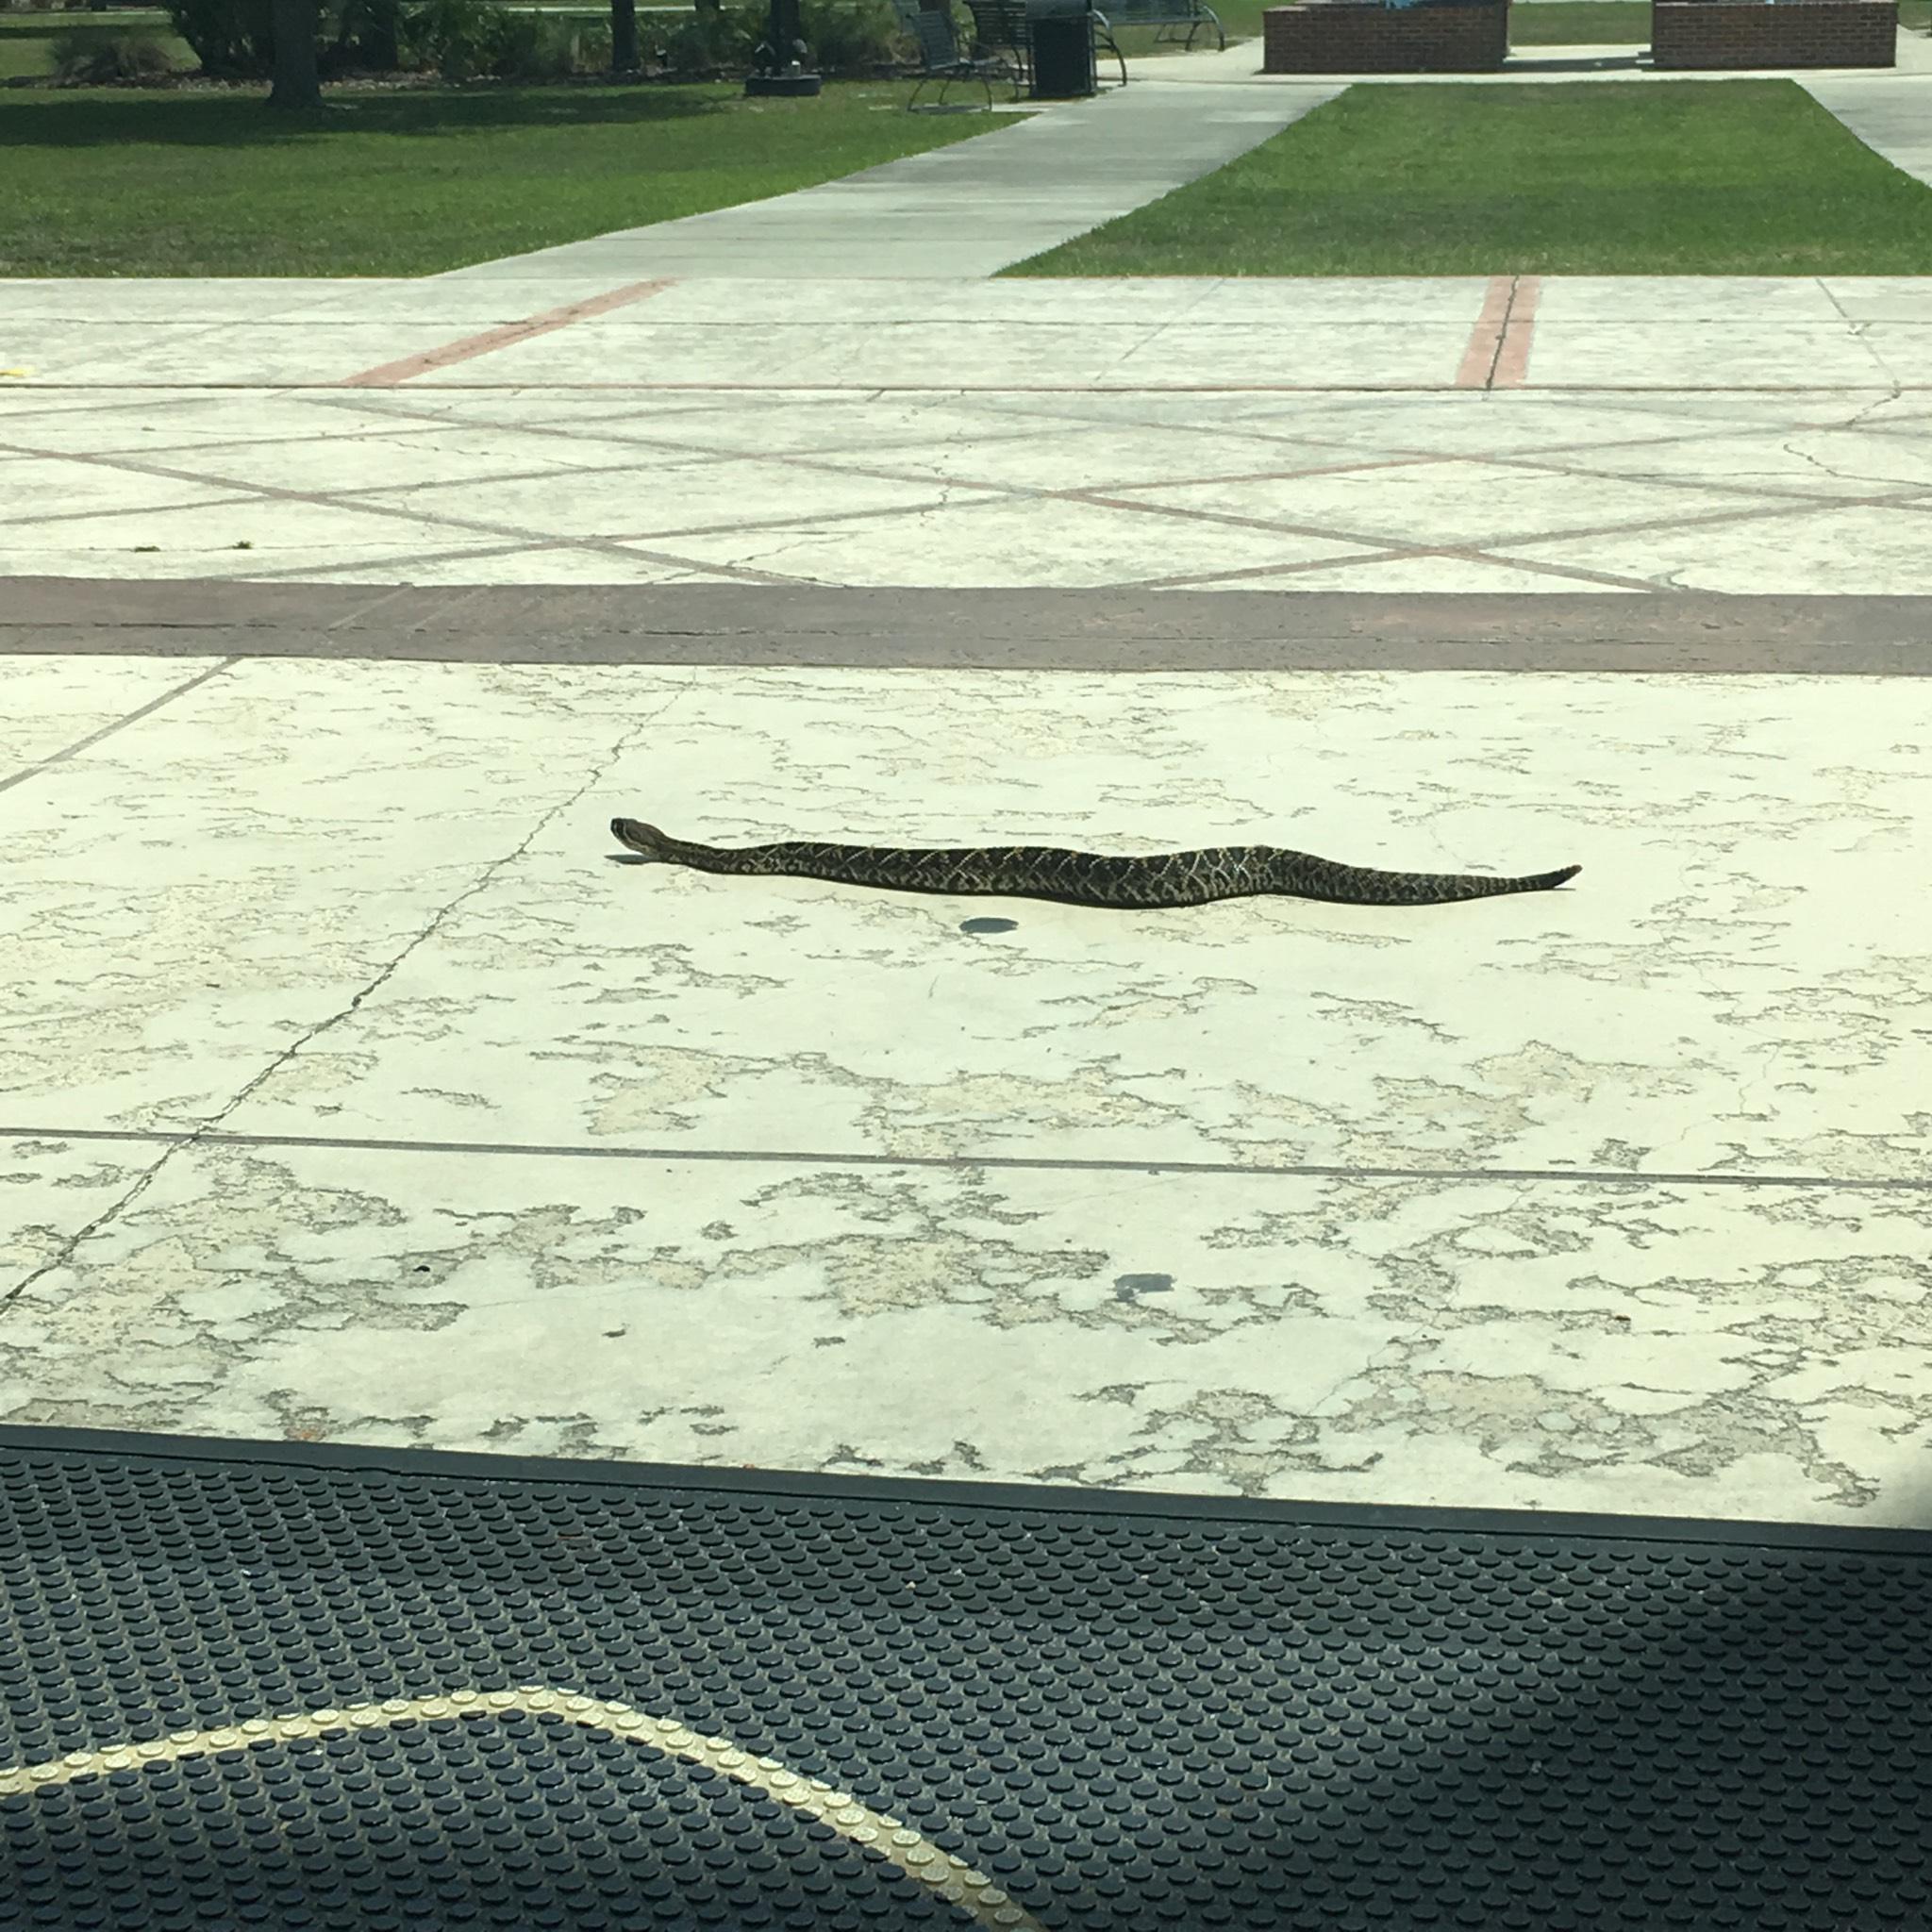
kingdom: Animalia
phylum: Chordata
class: Squamata
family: Viperidae
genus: Crotalus
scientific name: Crotalus adamanteus
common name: Eastern diamondback rattlesnake
